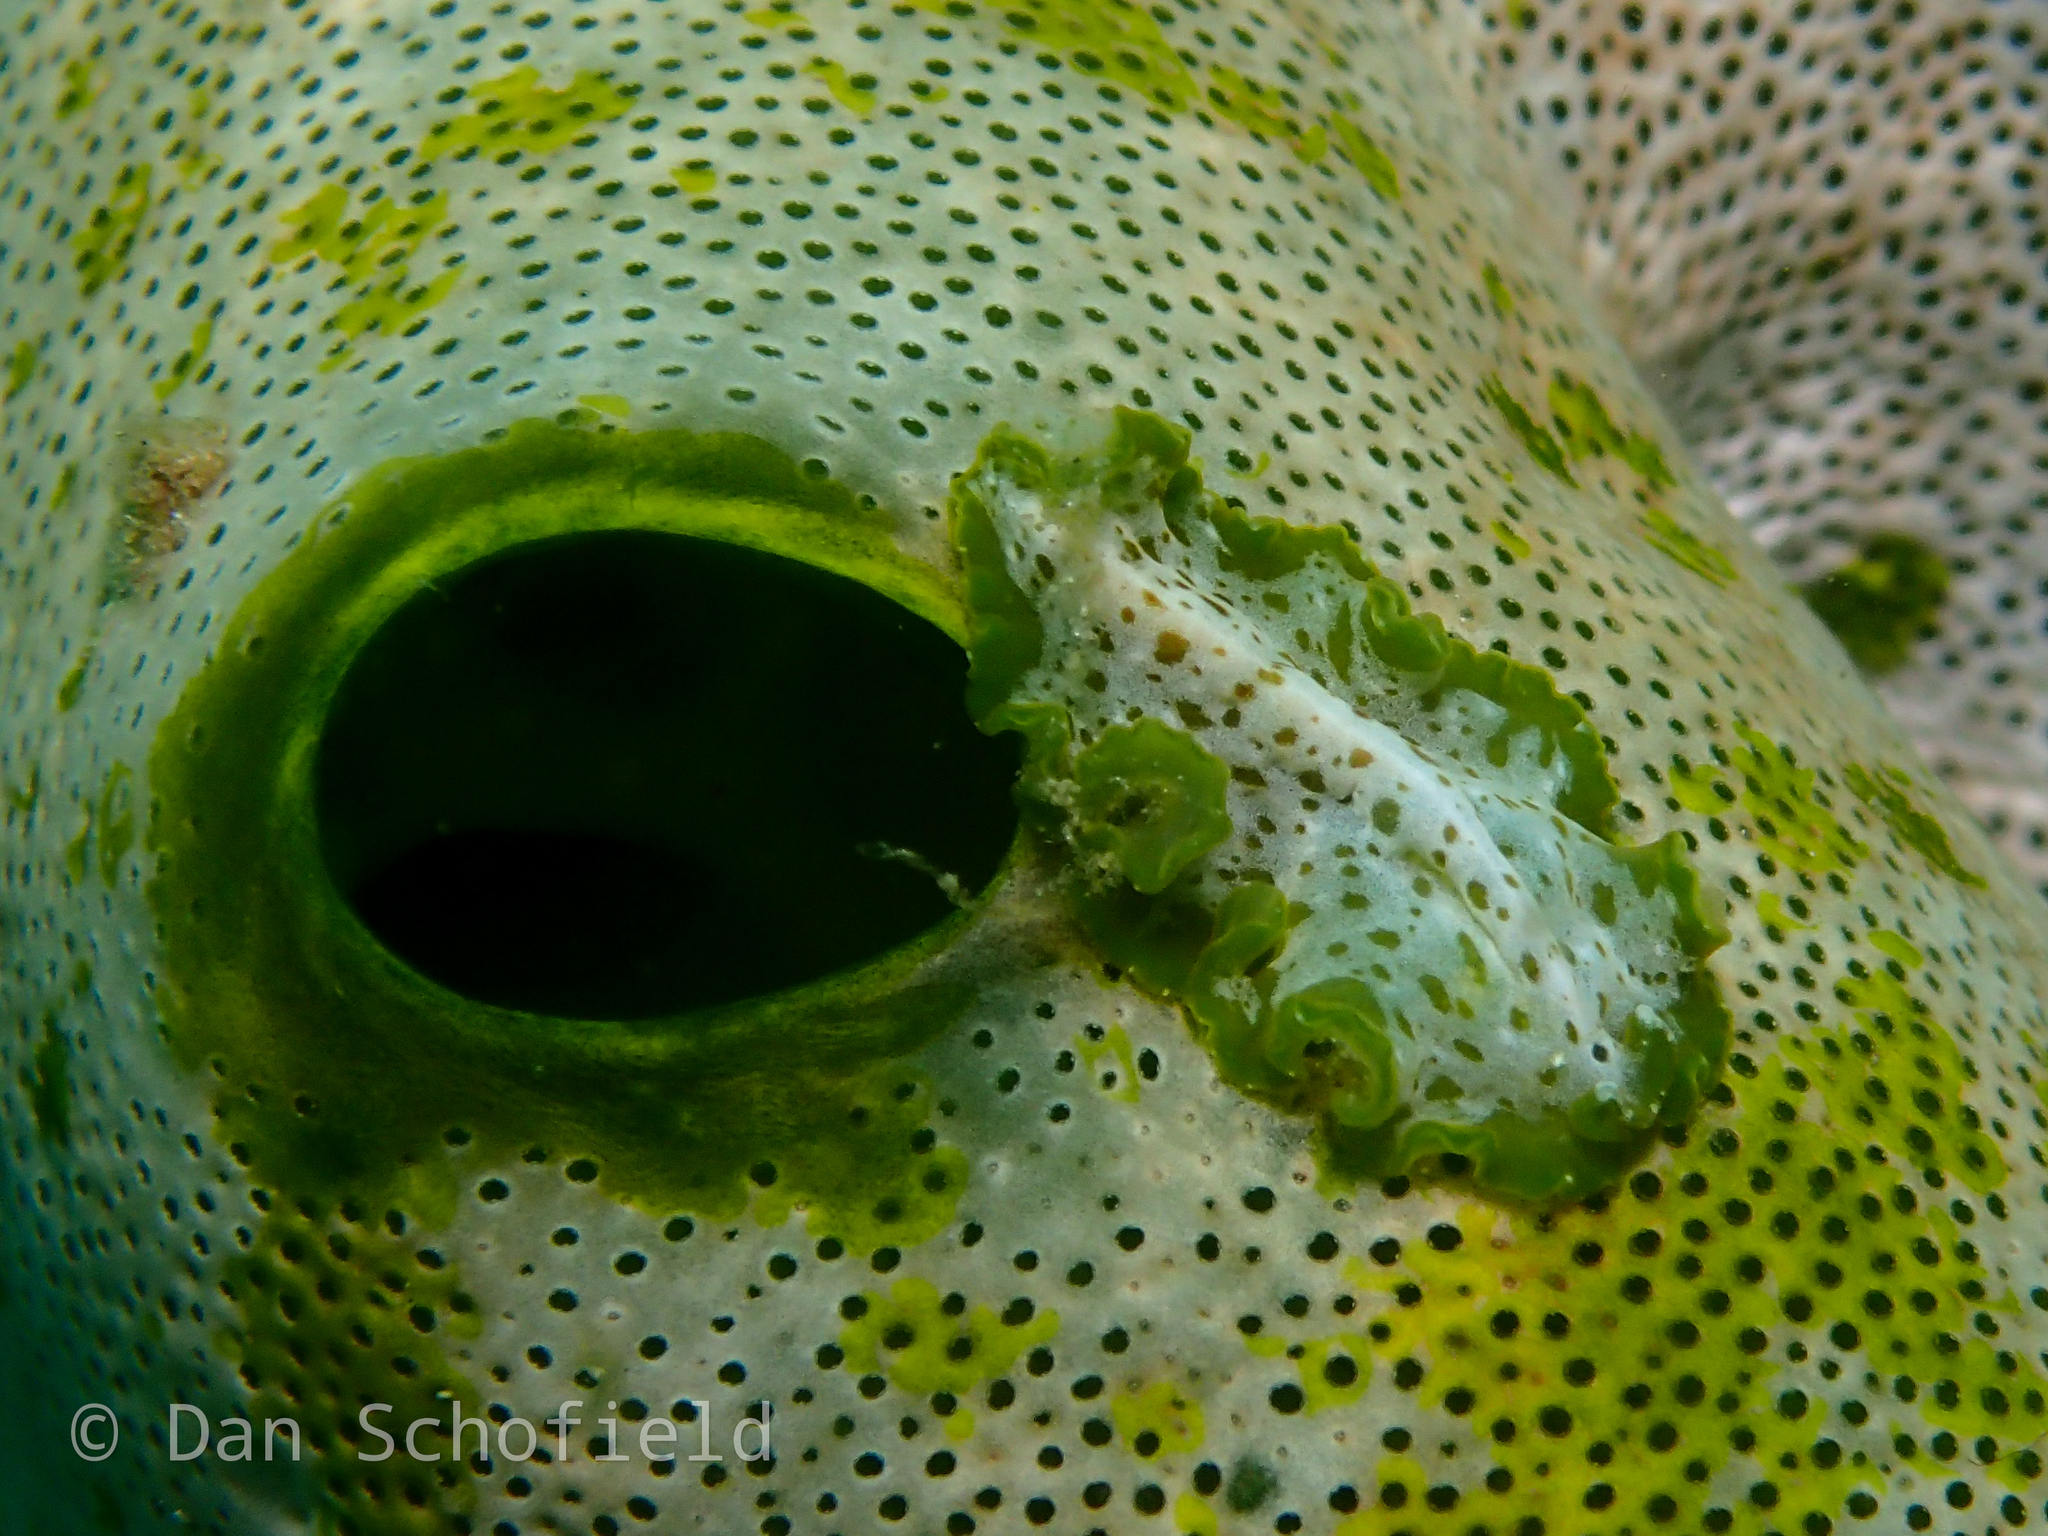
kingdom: Animalia
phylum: Chordata
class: Ascidiacea
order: Aplousobranchia
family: Didemnidae
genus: Didemnum
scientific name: Didemnum molle
